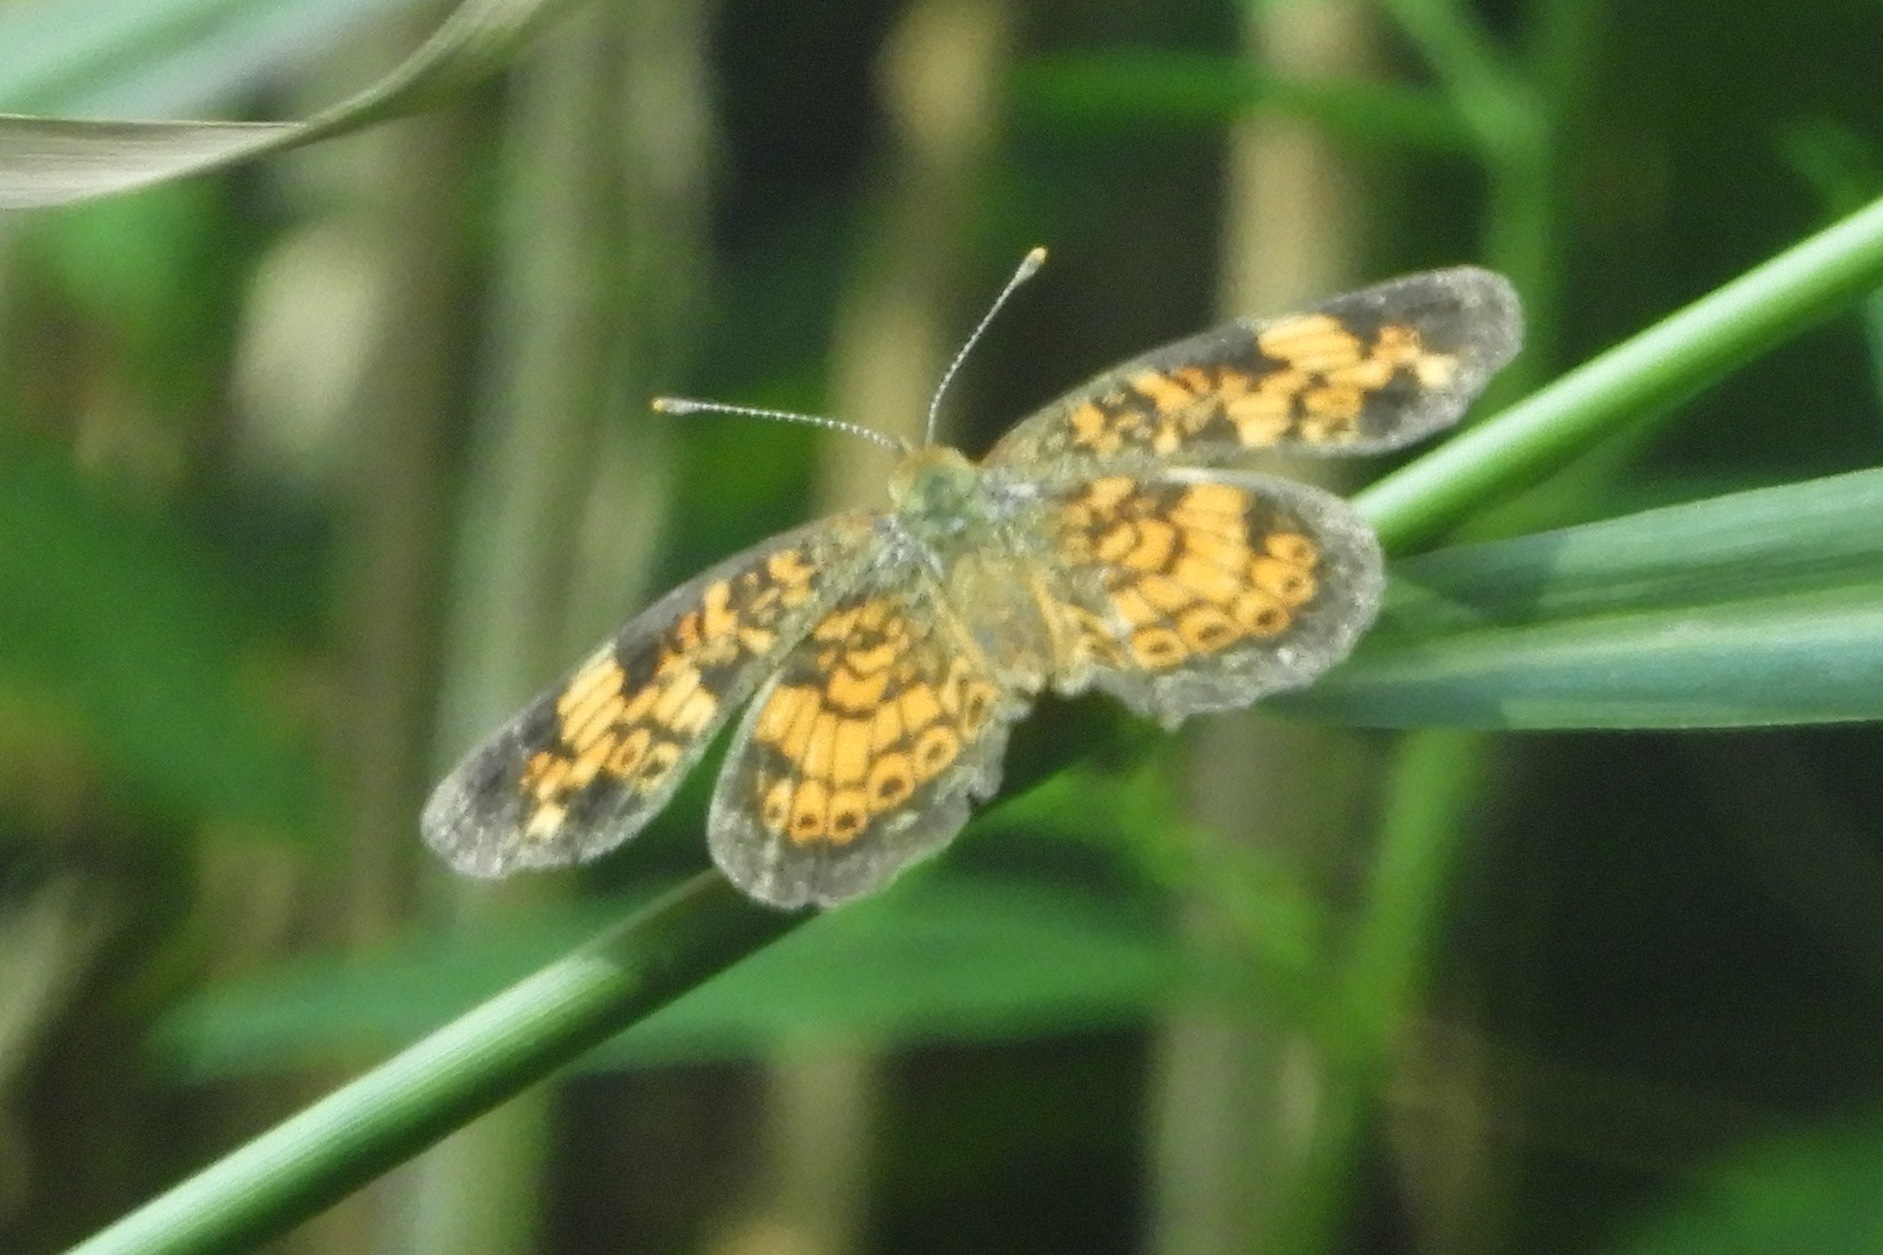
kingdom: Animalia
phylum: Arthropoda
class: Insecta
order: Lepidoptera
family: Nymphalidae
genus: Phyciodes
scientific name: Phyciodes tharos
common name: Pearl crescent
